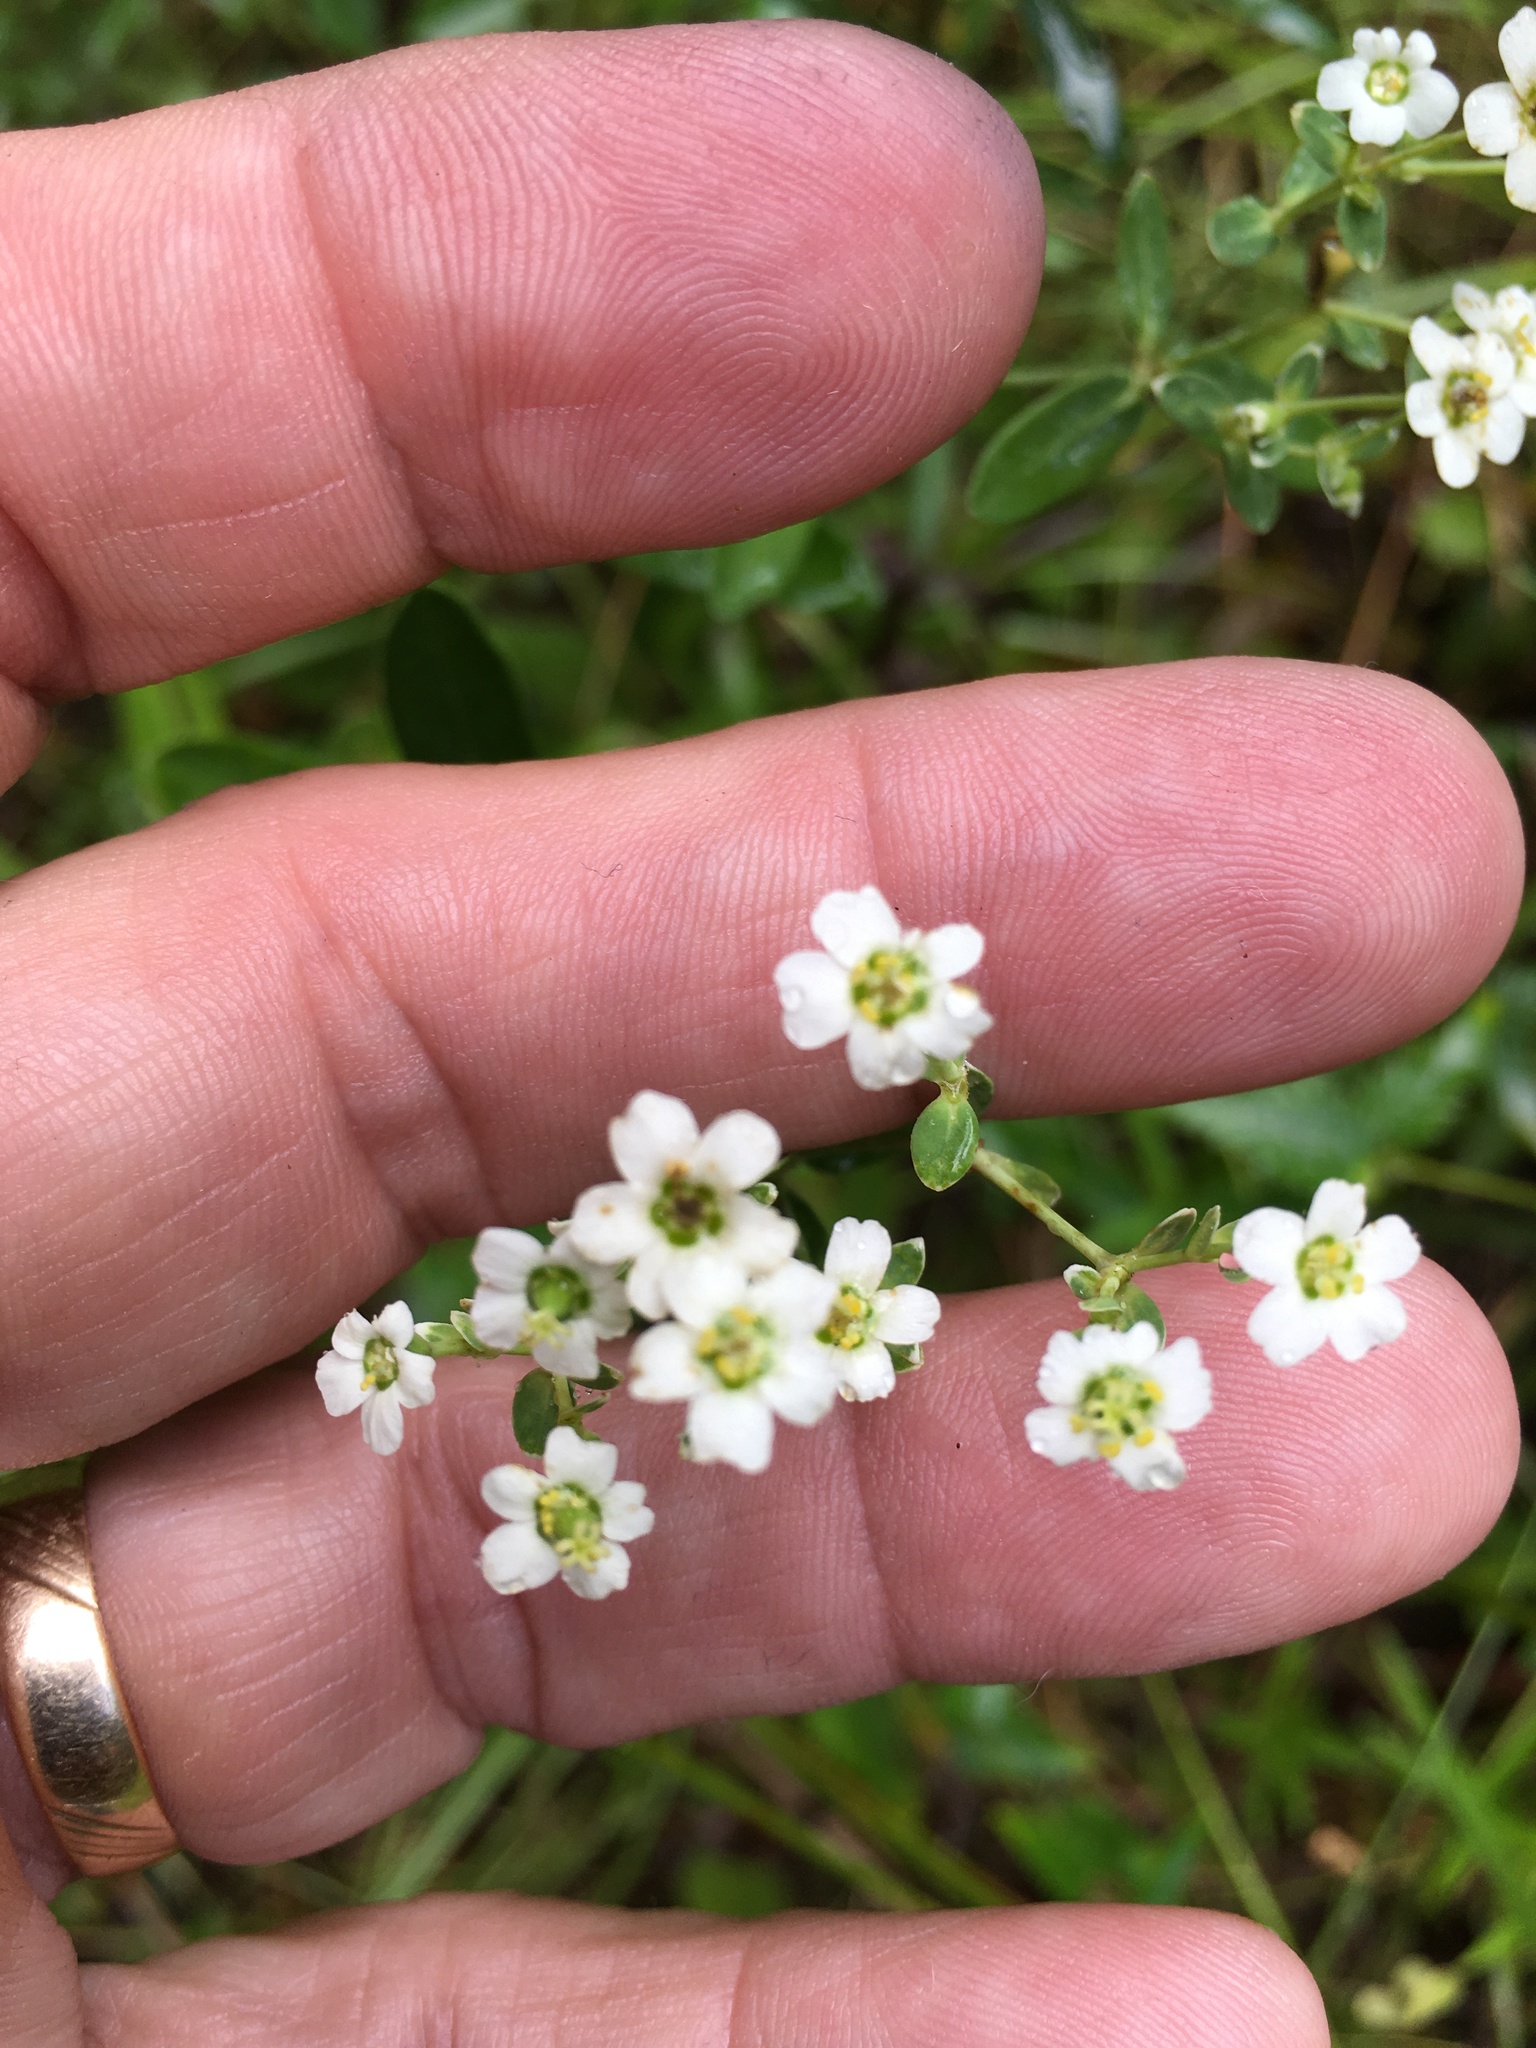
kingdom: Plantae
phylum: Tracheophyta
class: Magnoliopsida
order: Malpighiales
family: Euphorbiaceae
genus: Euphorbia
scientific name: Euphorbia corollata
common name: Flowering spurge
